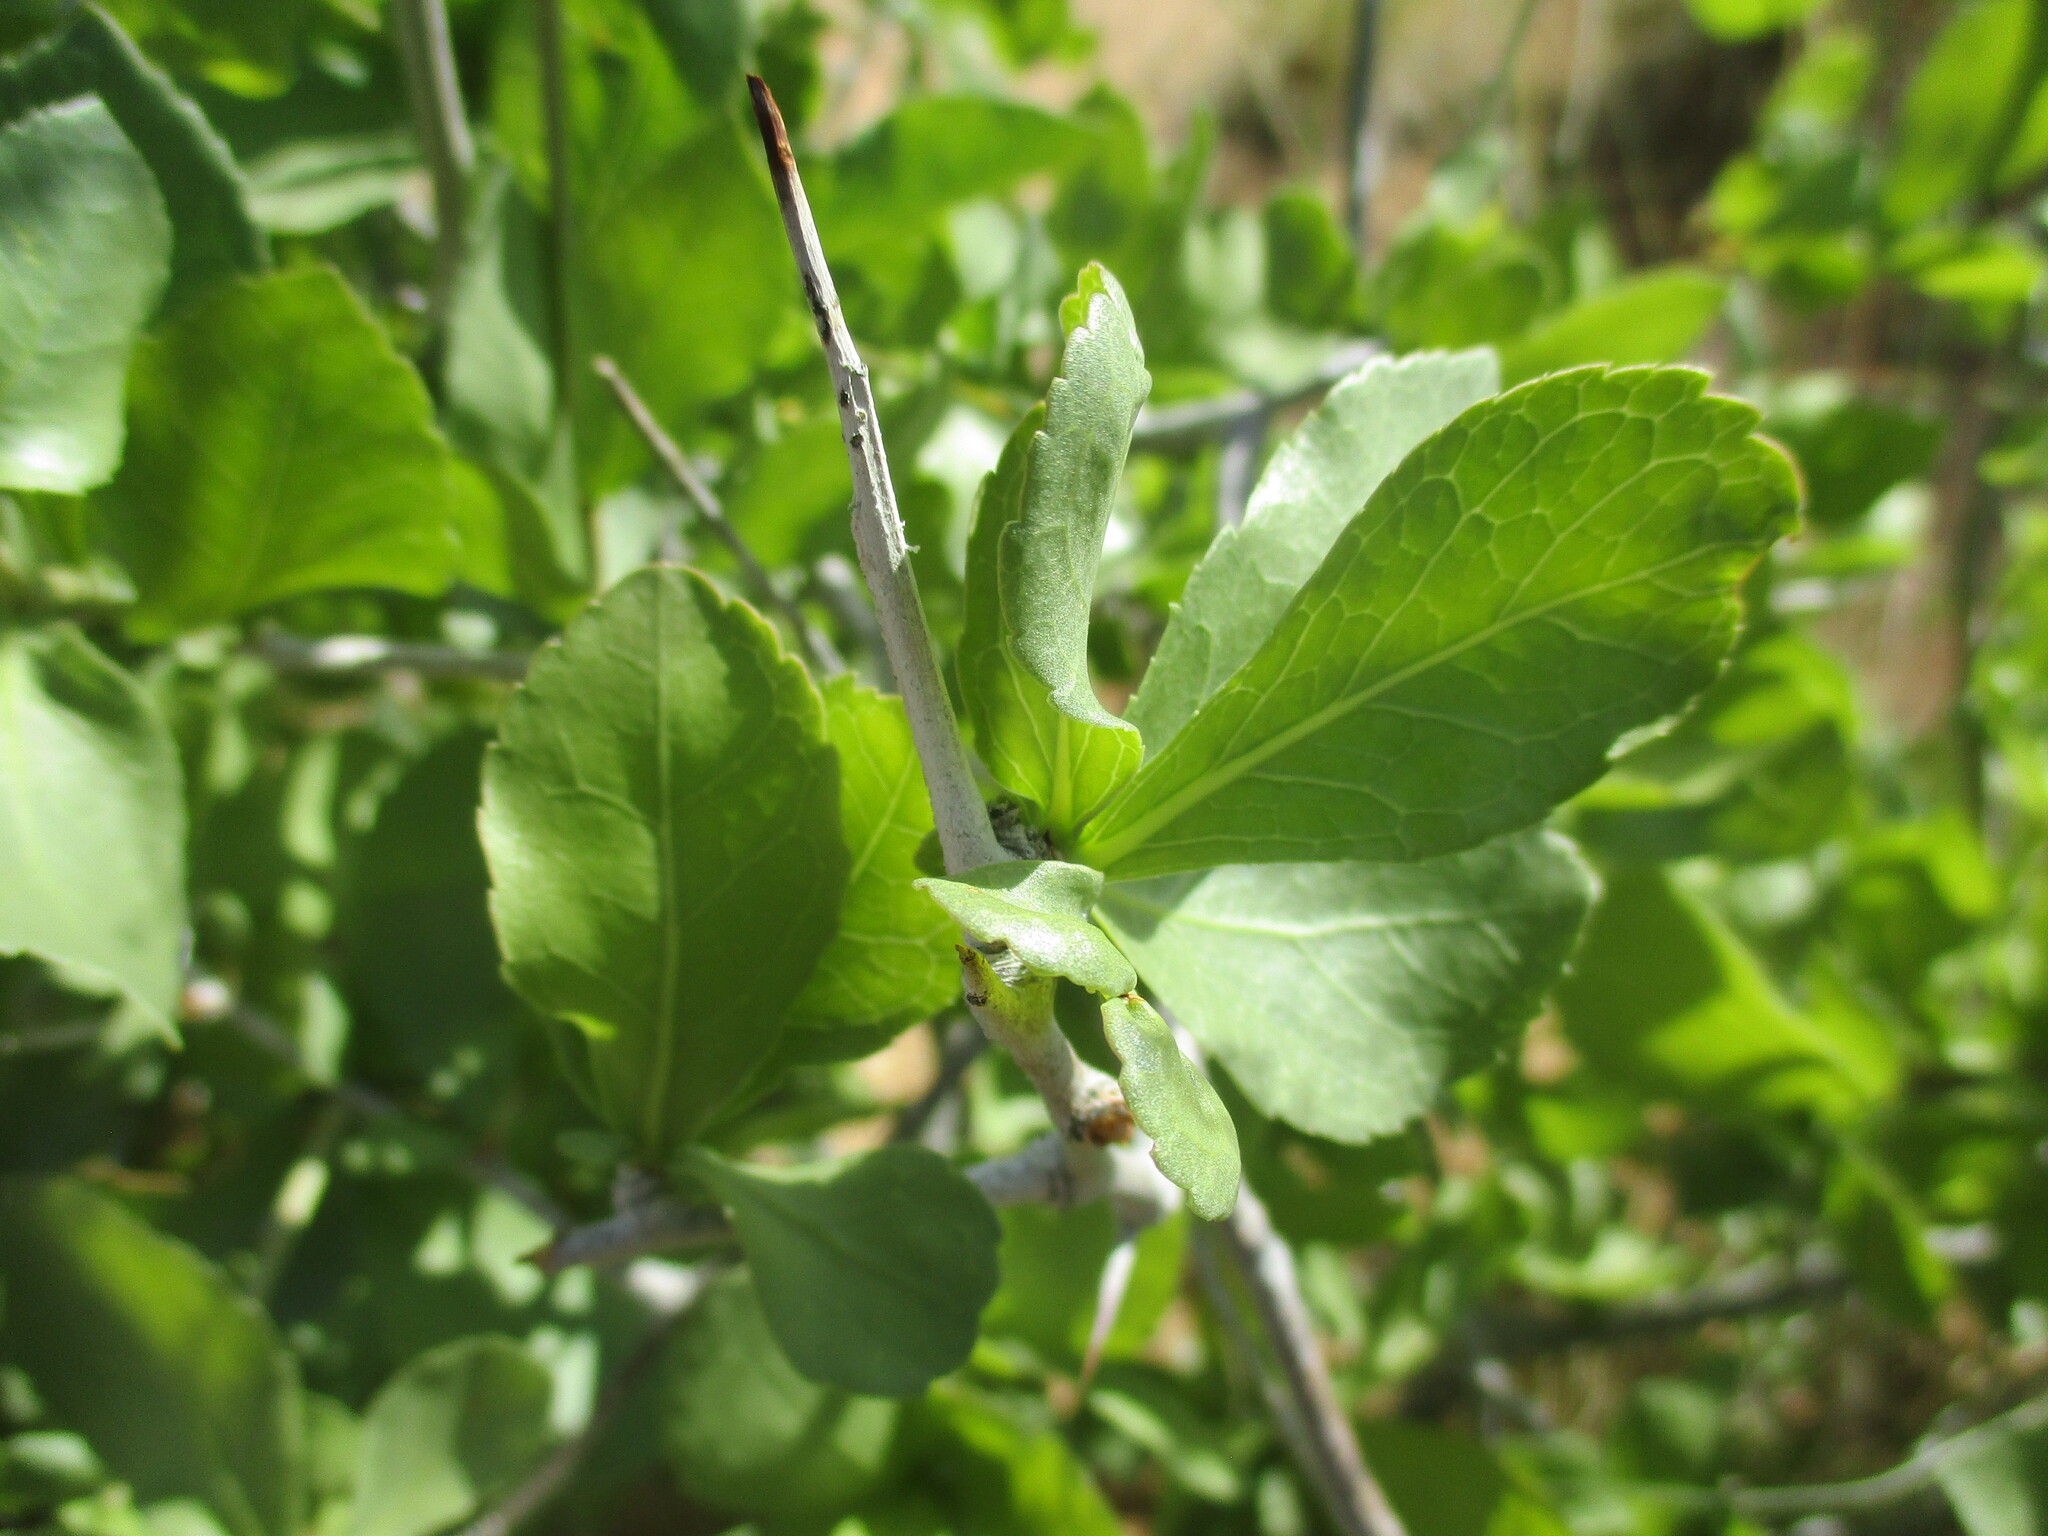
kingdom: Plantae
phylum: Tracheophyta
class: Magnoliopsida
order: Sapindales
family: Burseraceae
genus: Commiphora
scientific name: Commiphora pyracanthoides
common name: Cork tree
